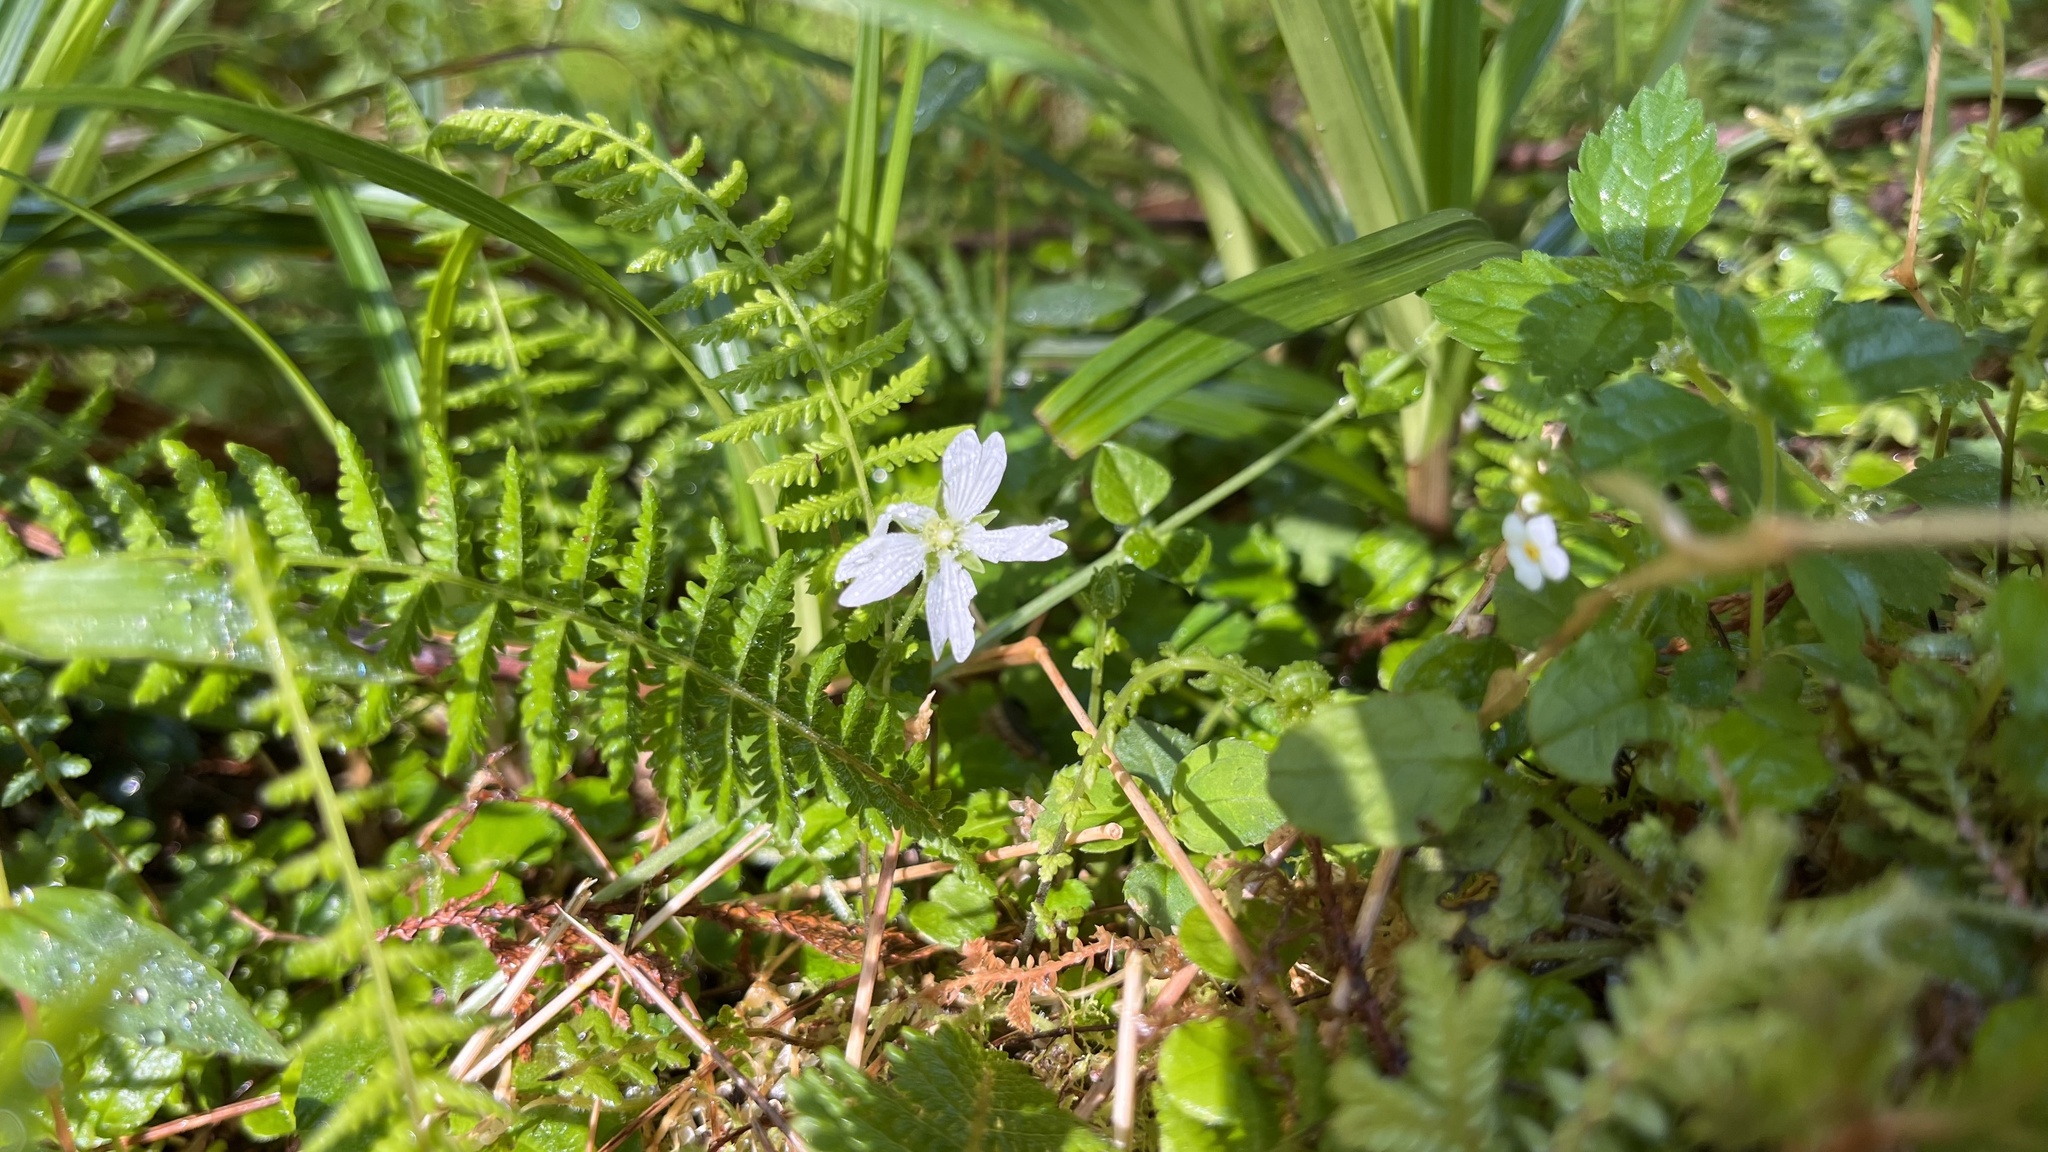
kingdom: Plantae
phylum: Tracheophyta
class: Magnoliopsida
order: Caryophyllales
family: Caryophyllaceae
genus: Nubelaria
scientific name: Nubelaria arisanensis
